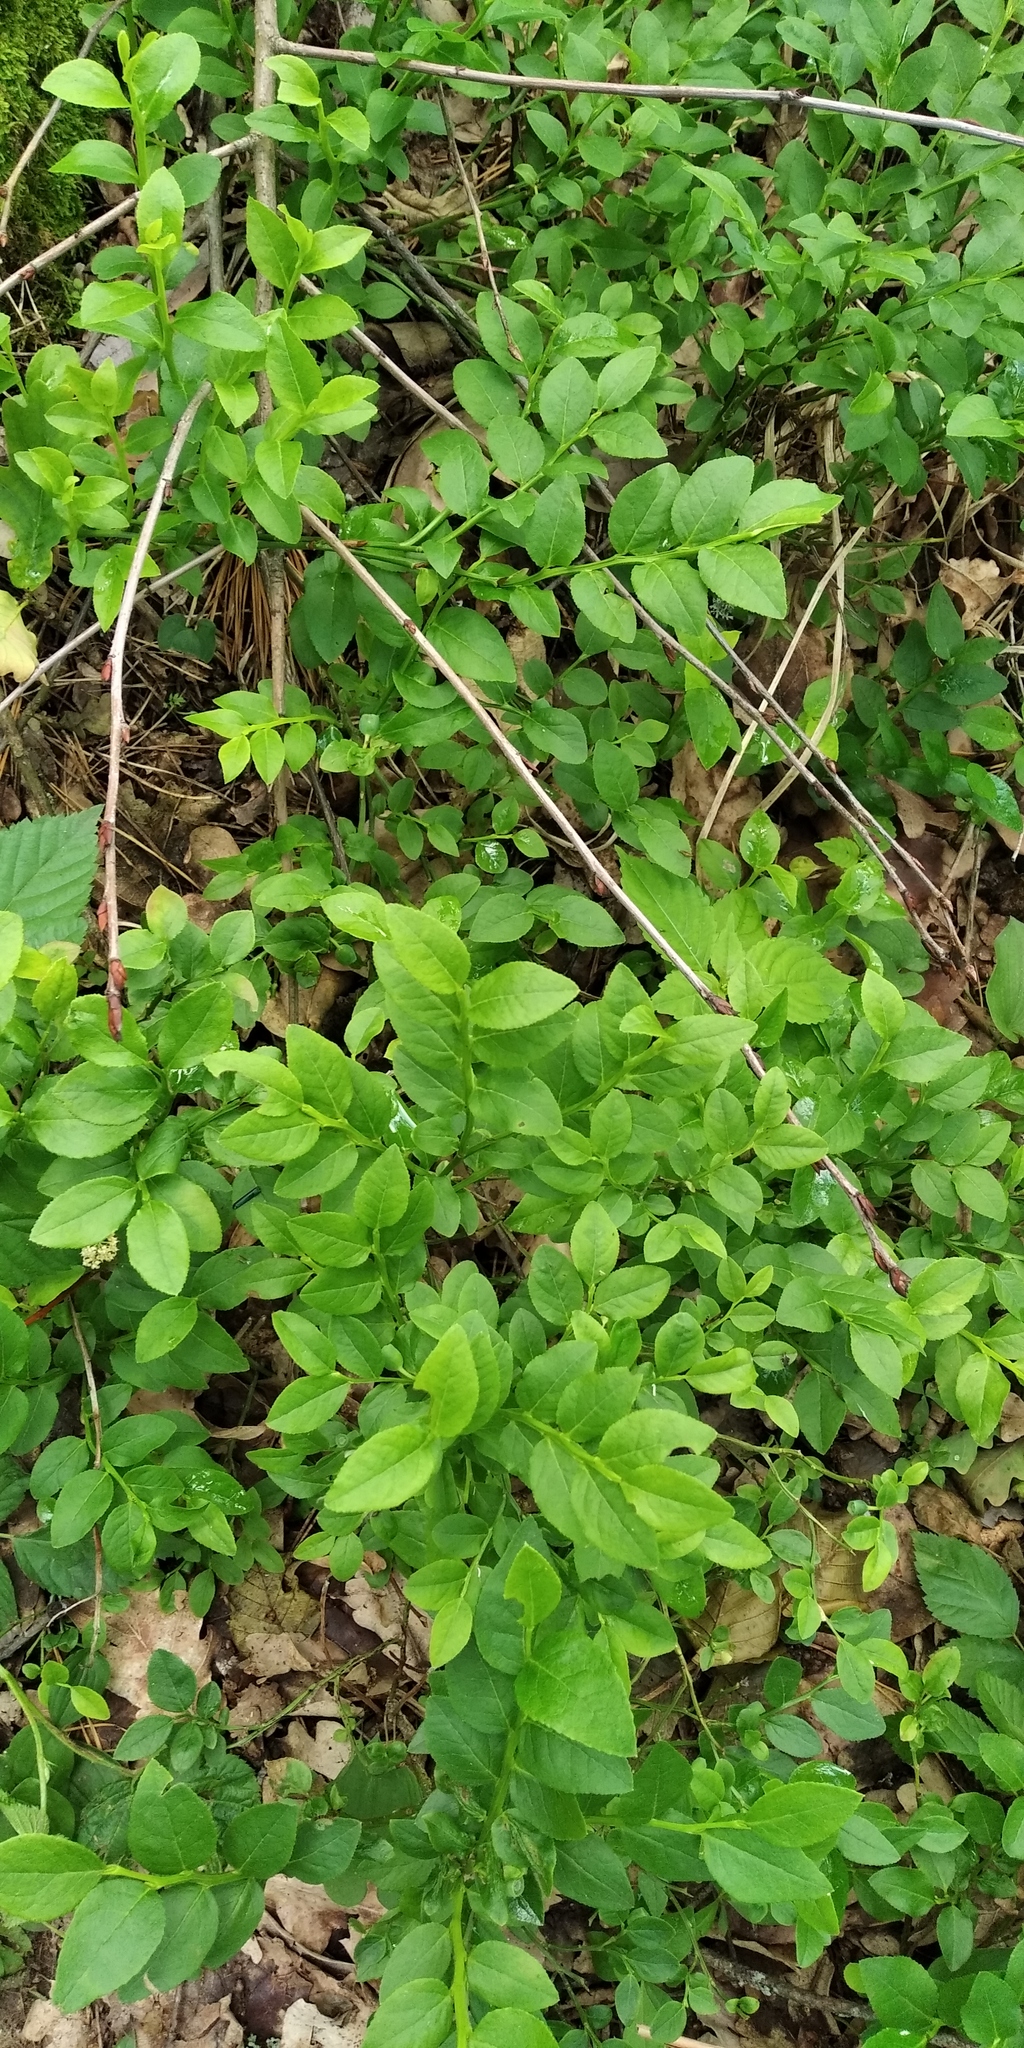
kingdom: Plantae
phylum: Tracheophyta
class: Magnoliopsida
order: Ericales
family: Ericaceae
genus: Vaccinium
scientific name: Vaccinium myrtillus
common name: Bilberry
